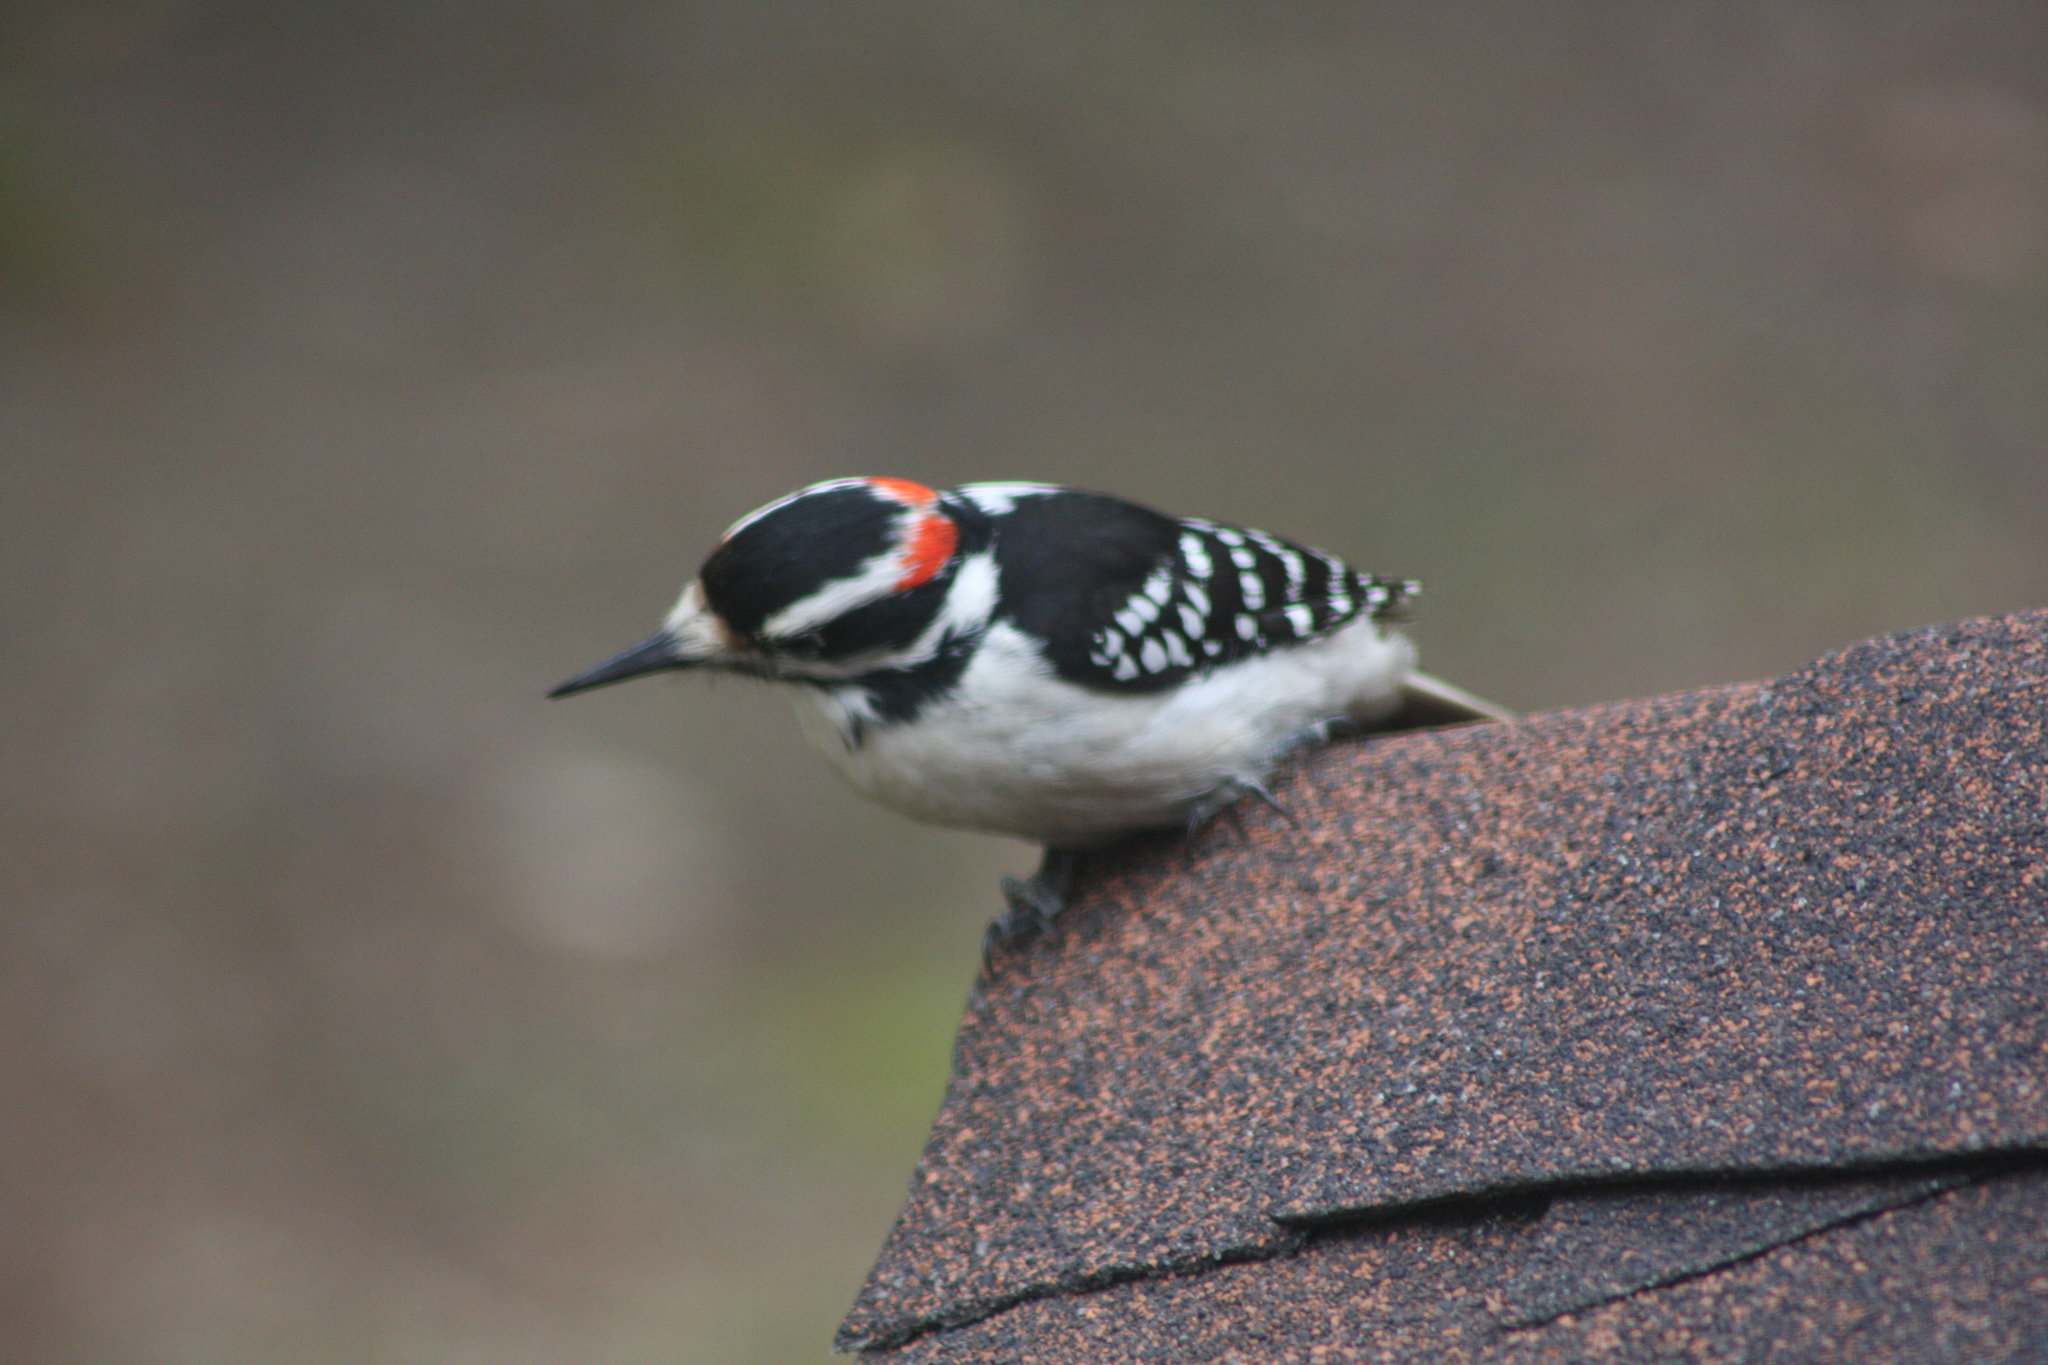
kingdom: Animalia
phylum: Chordata
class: Aves
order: Piciformes
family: Picidae
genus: Leuconotopicus
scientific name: Leuconotopicus villosus
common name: Hairy woodpecker
